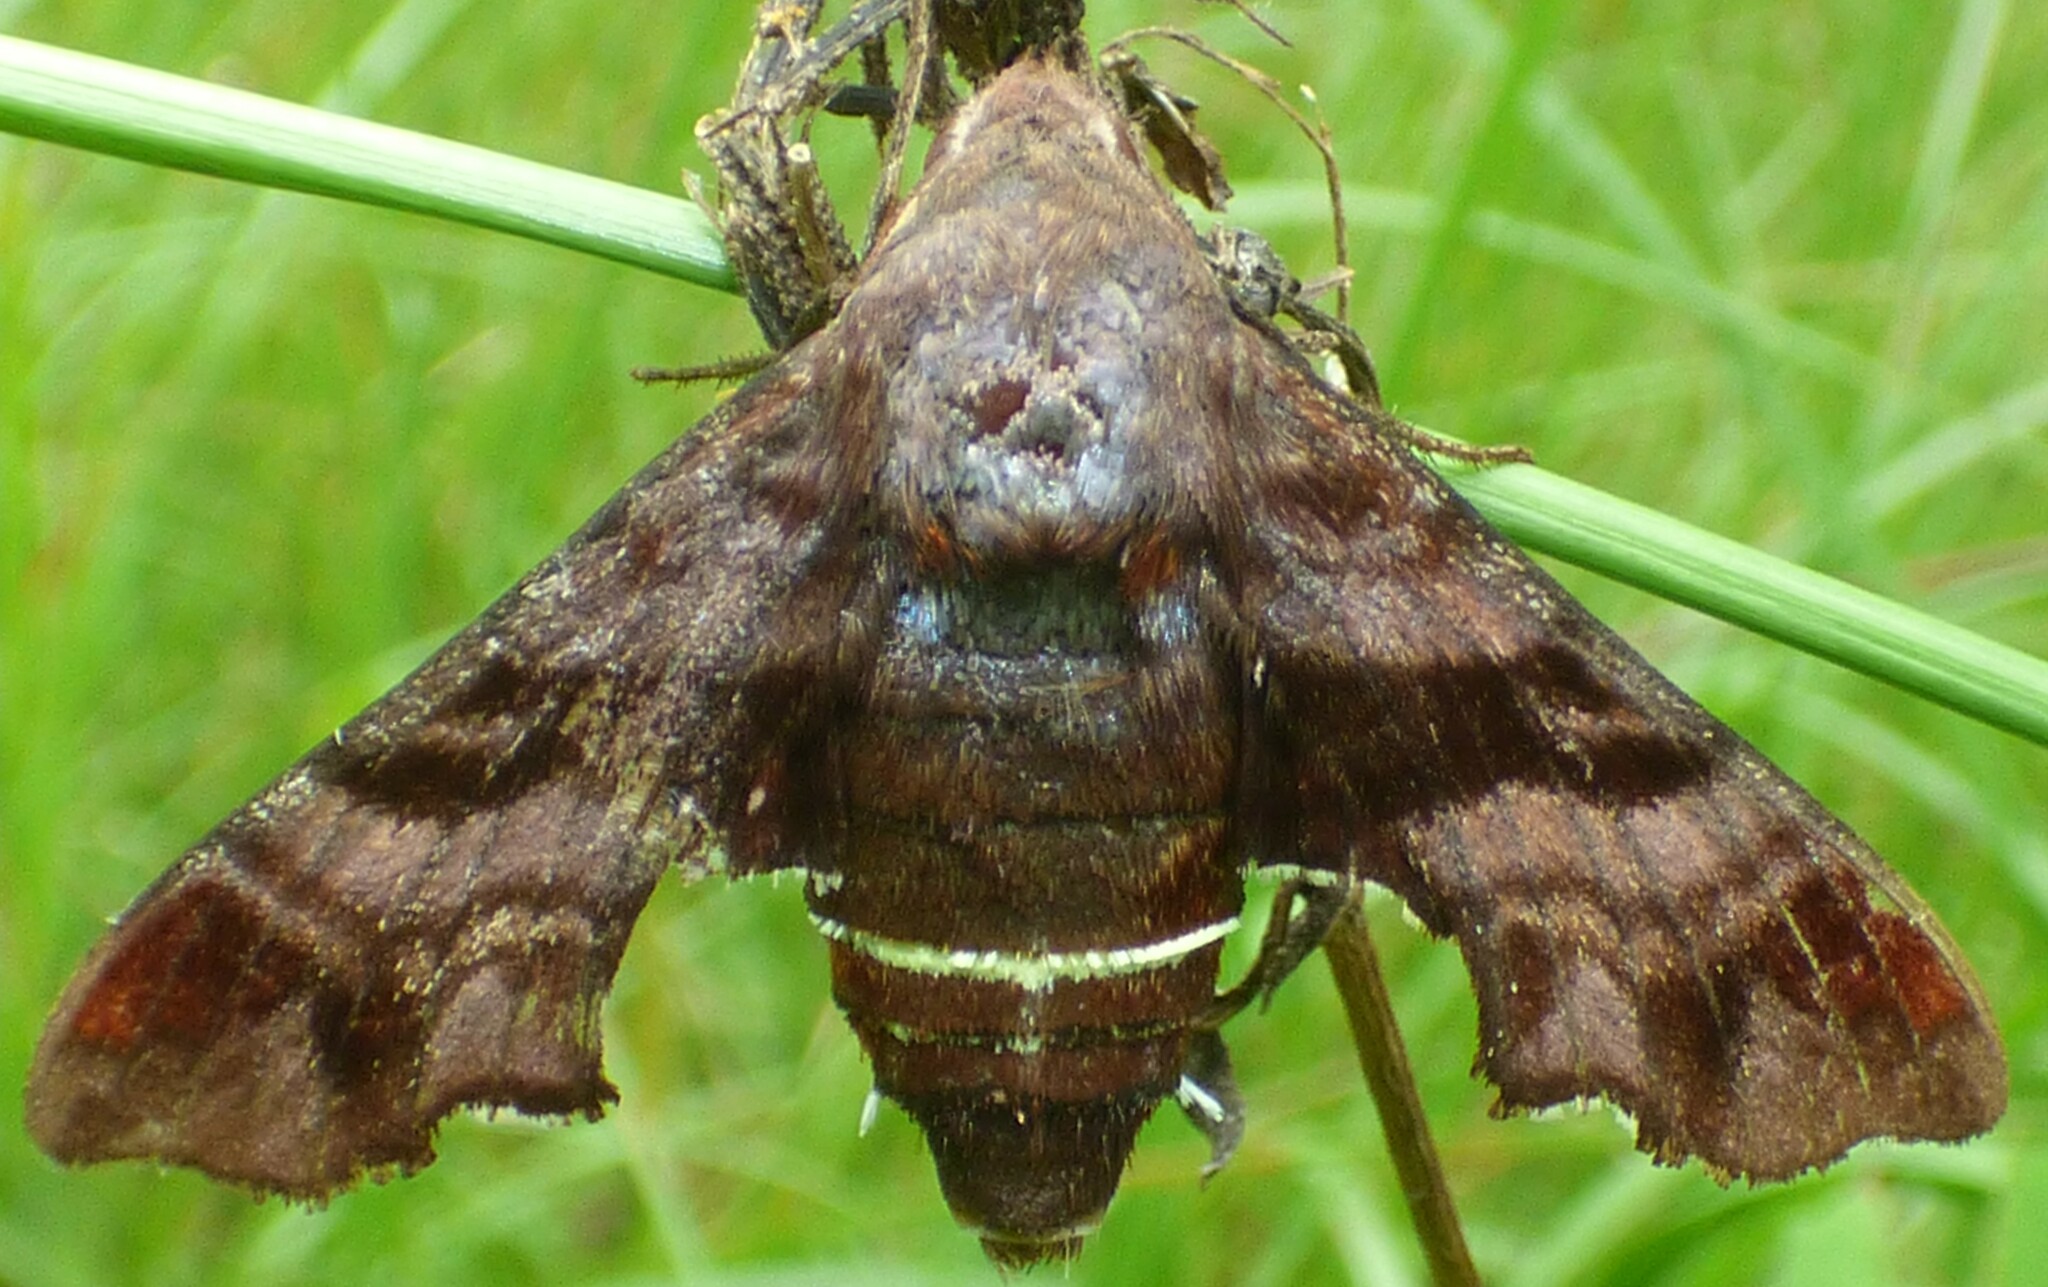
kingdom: Animalia
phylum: Arthropoda
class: Insecta
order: Lepidoptera
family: Sphingidae
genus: Amphion
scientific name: Amphion floridensis
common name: Nessus sphinx
